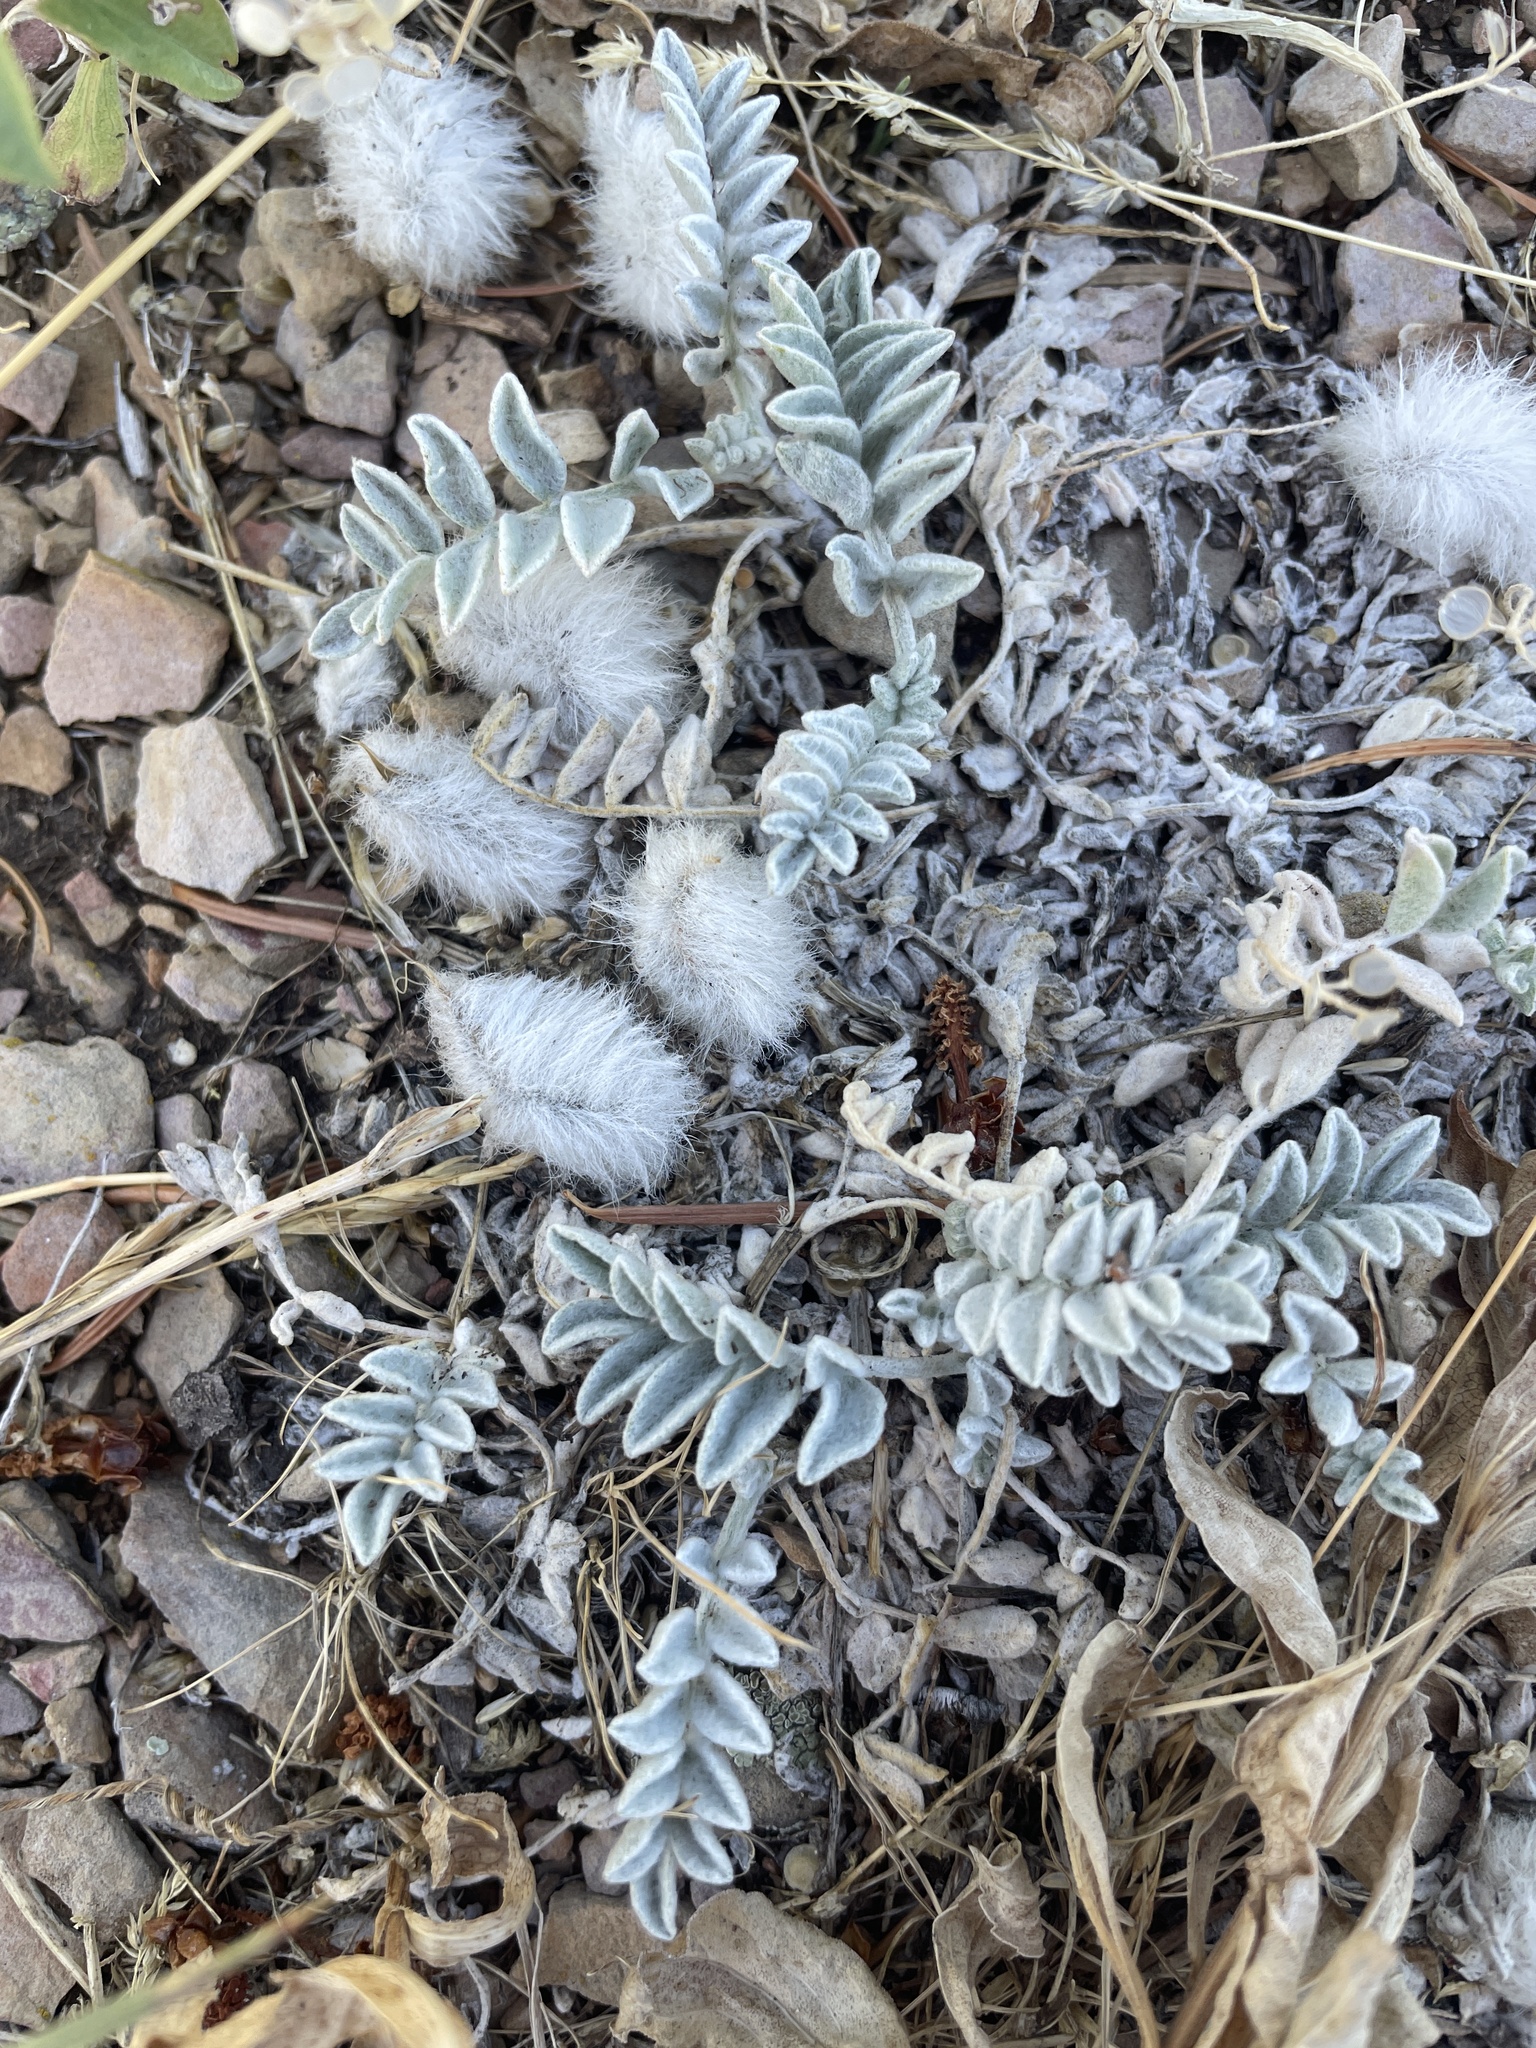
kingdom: Plantae
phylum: Tracheophyta
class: Magnoliopsida
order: Fabales
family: Fabaceae
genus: Astragalus
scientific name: Astragalus utahensis
